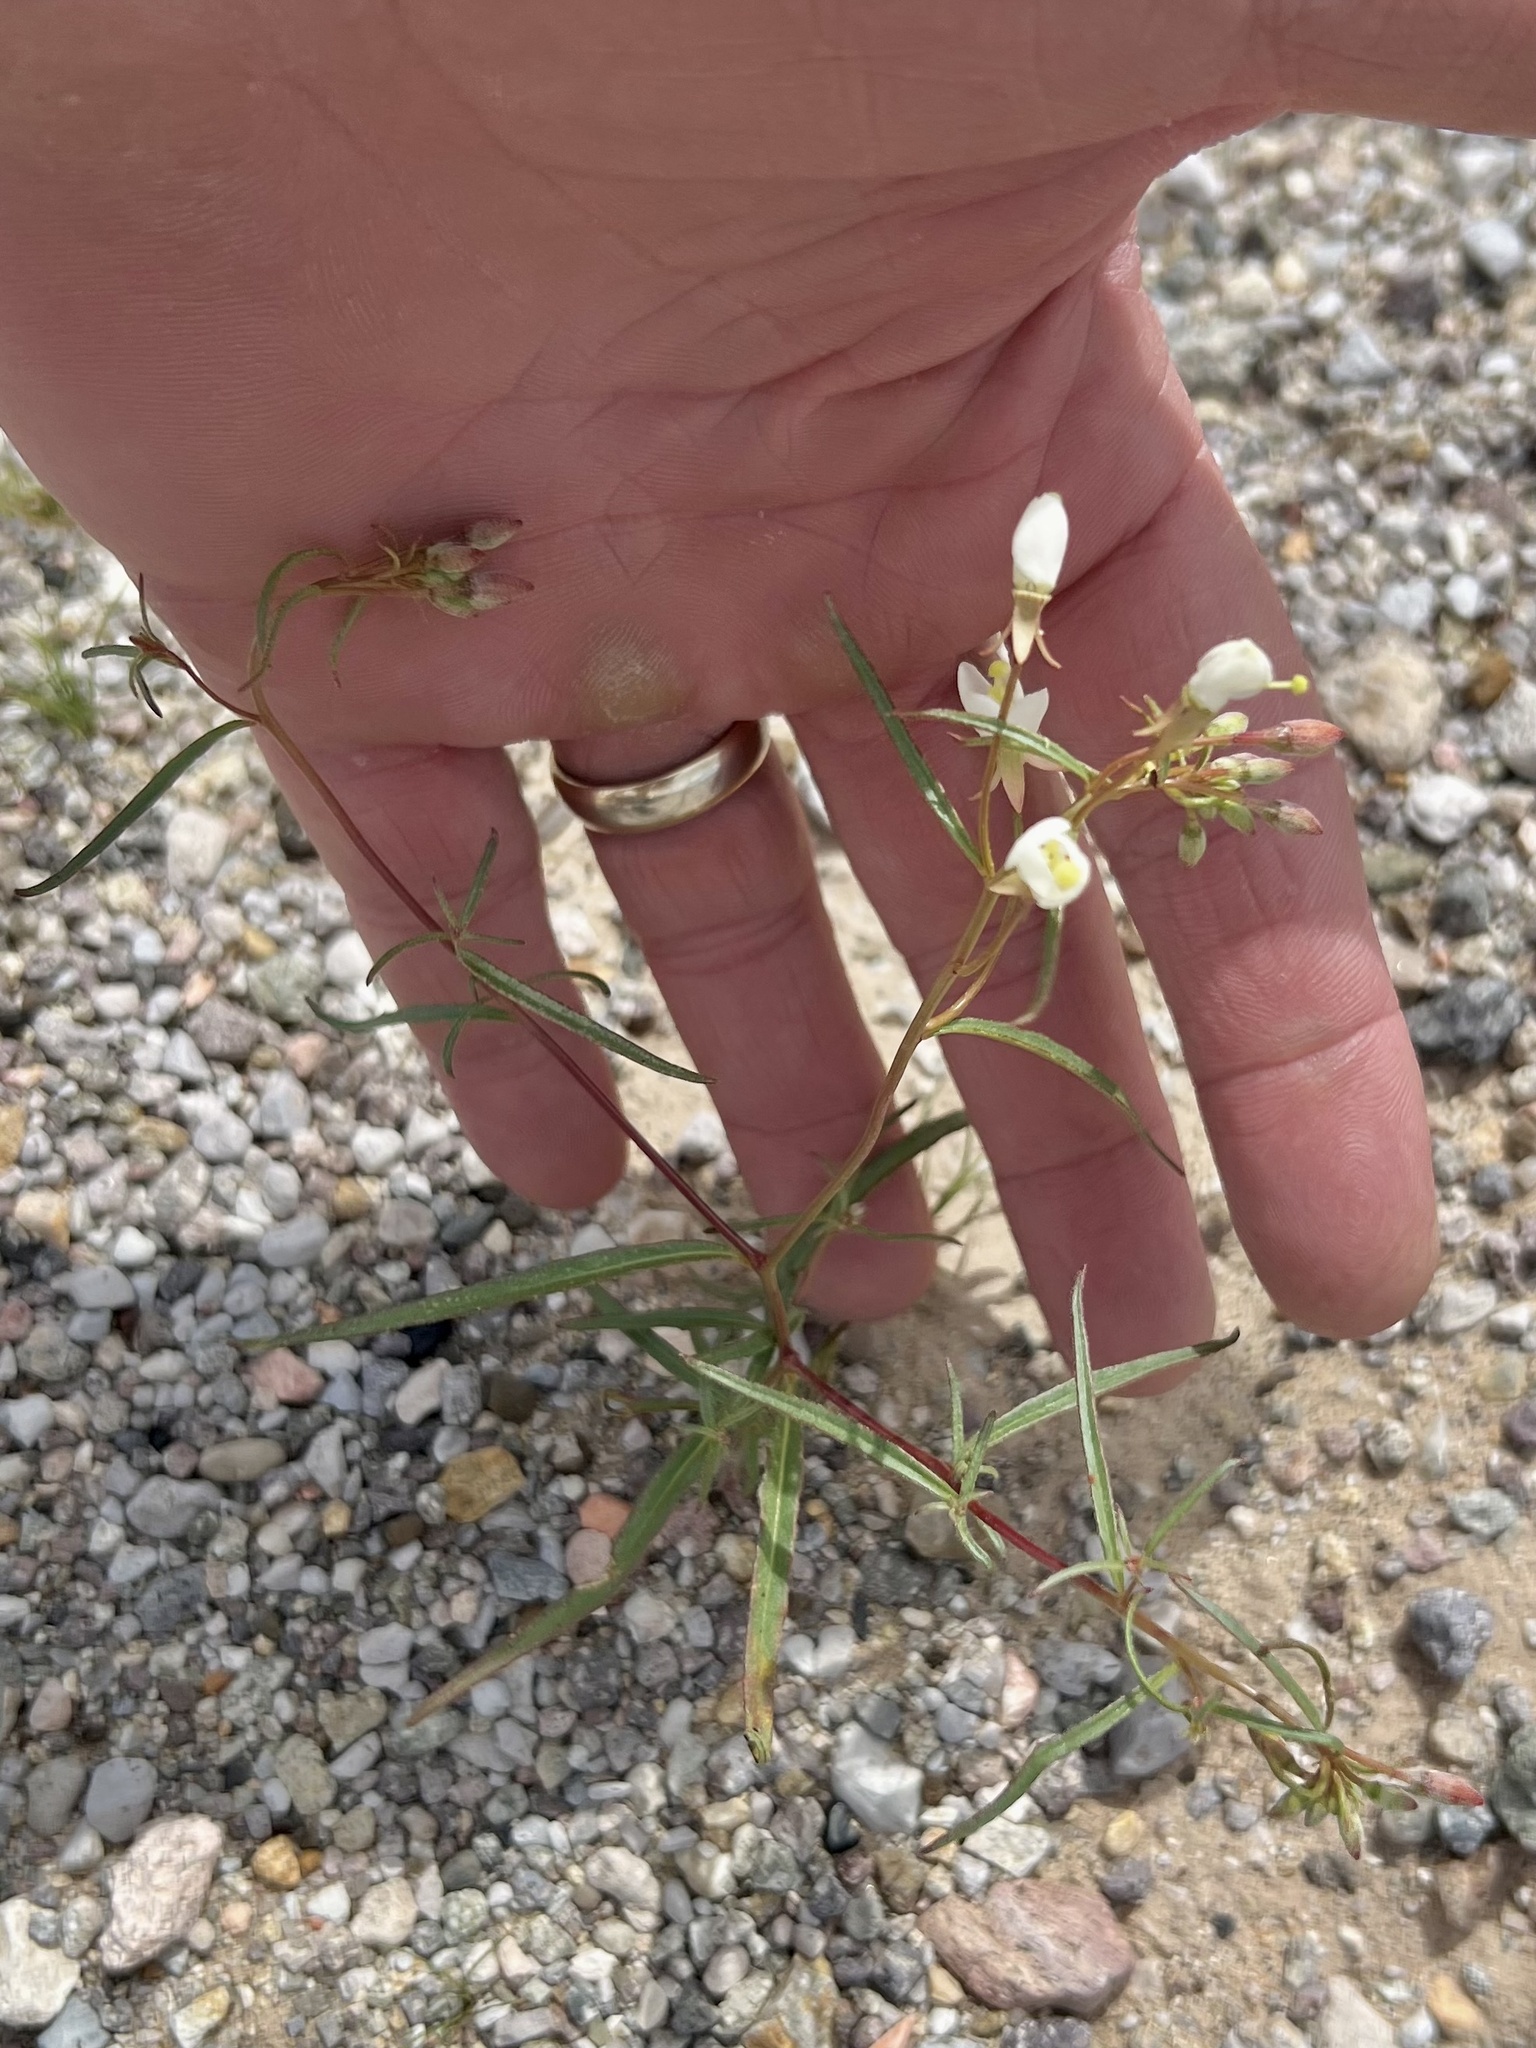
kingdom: Plantae
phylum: Tracheophyta
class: Magnoliopsida
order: Myrtales
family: Onagraceae
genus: Eremothera
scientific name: Eremothera refracta
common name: Narrowleaf suncup
